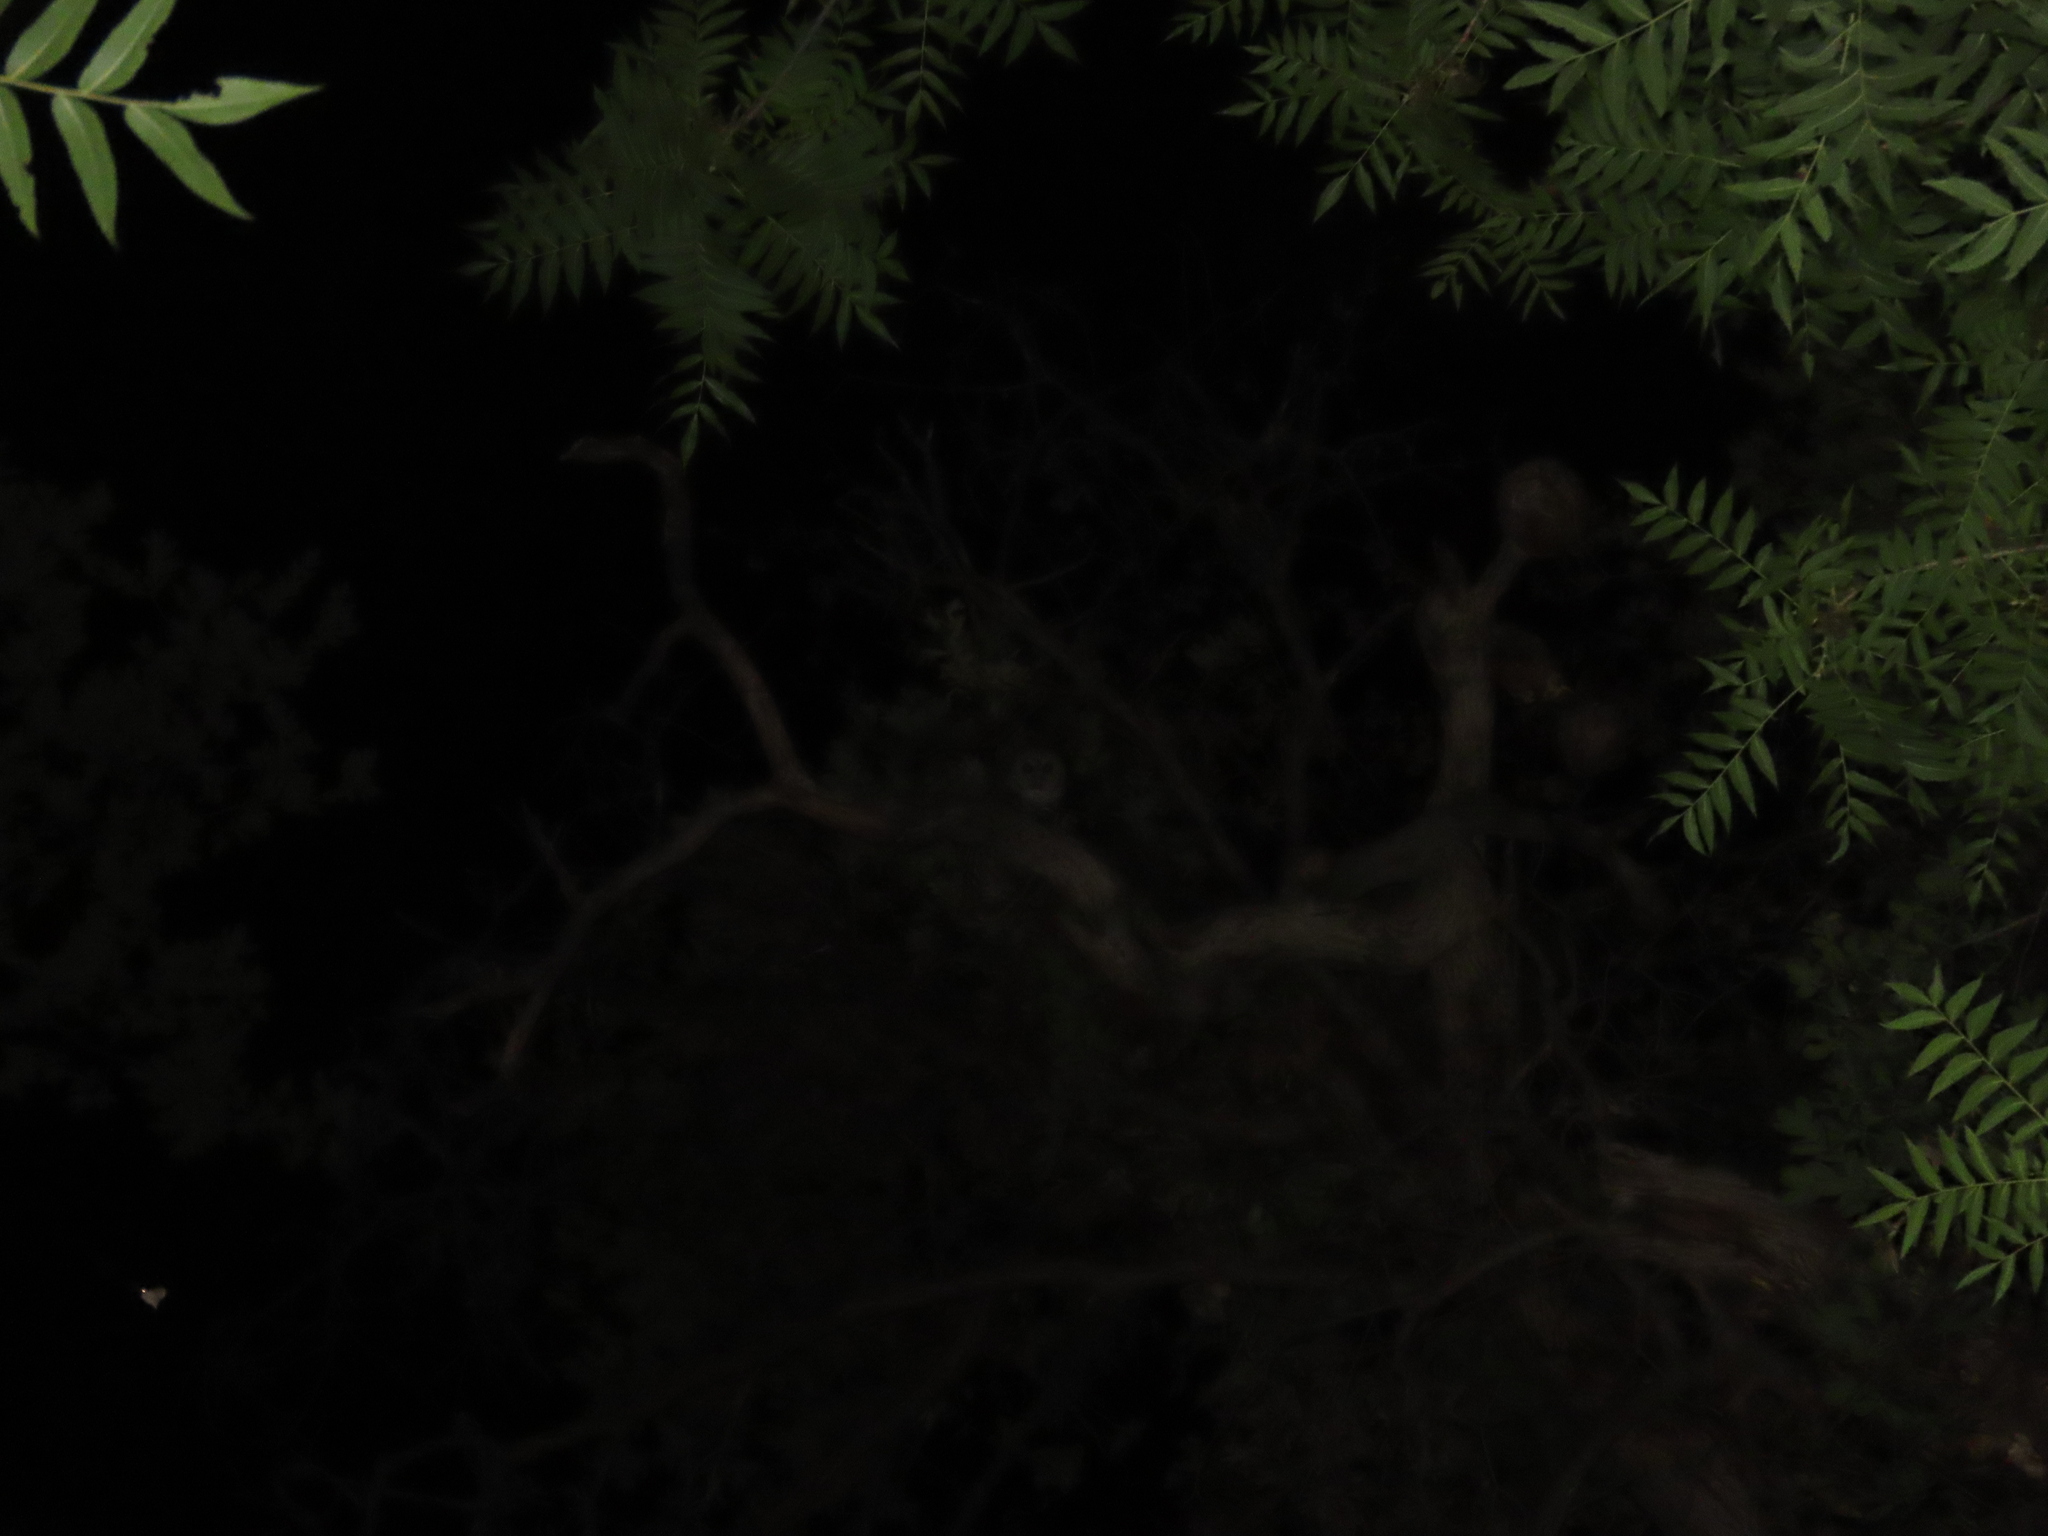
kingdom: Animalia
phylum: Chordata
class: Aves
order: Strigiformes
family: Strigidae
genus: Strix
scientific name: Strix occidentalis
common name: Spotted owl
